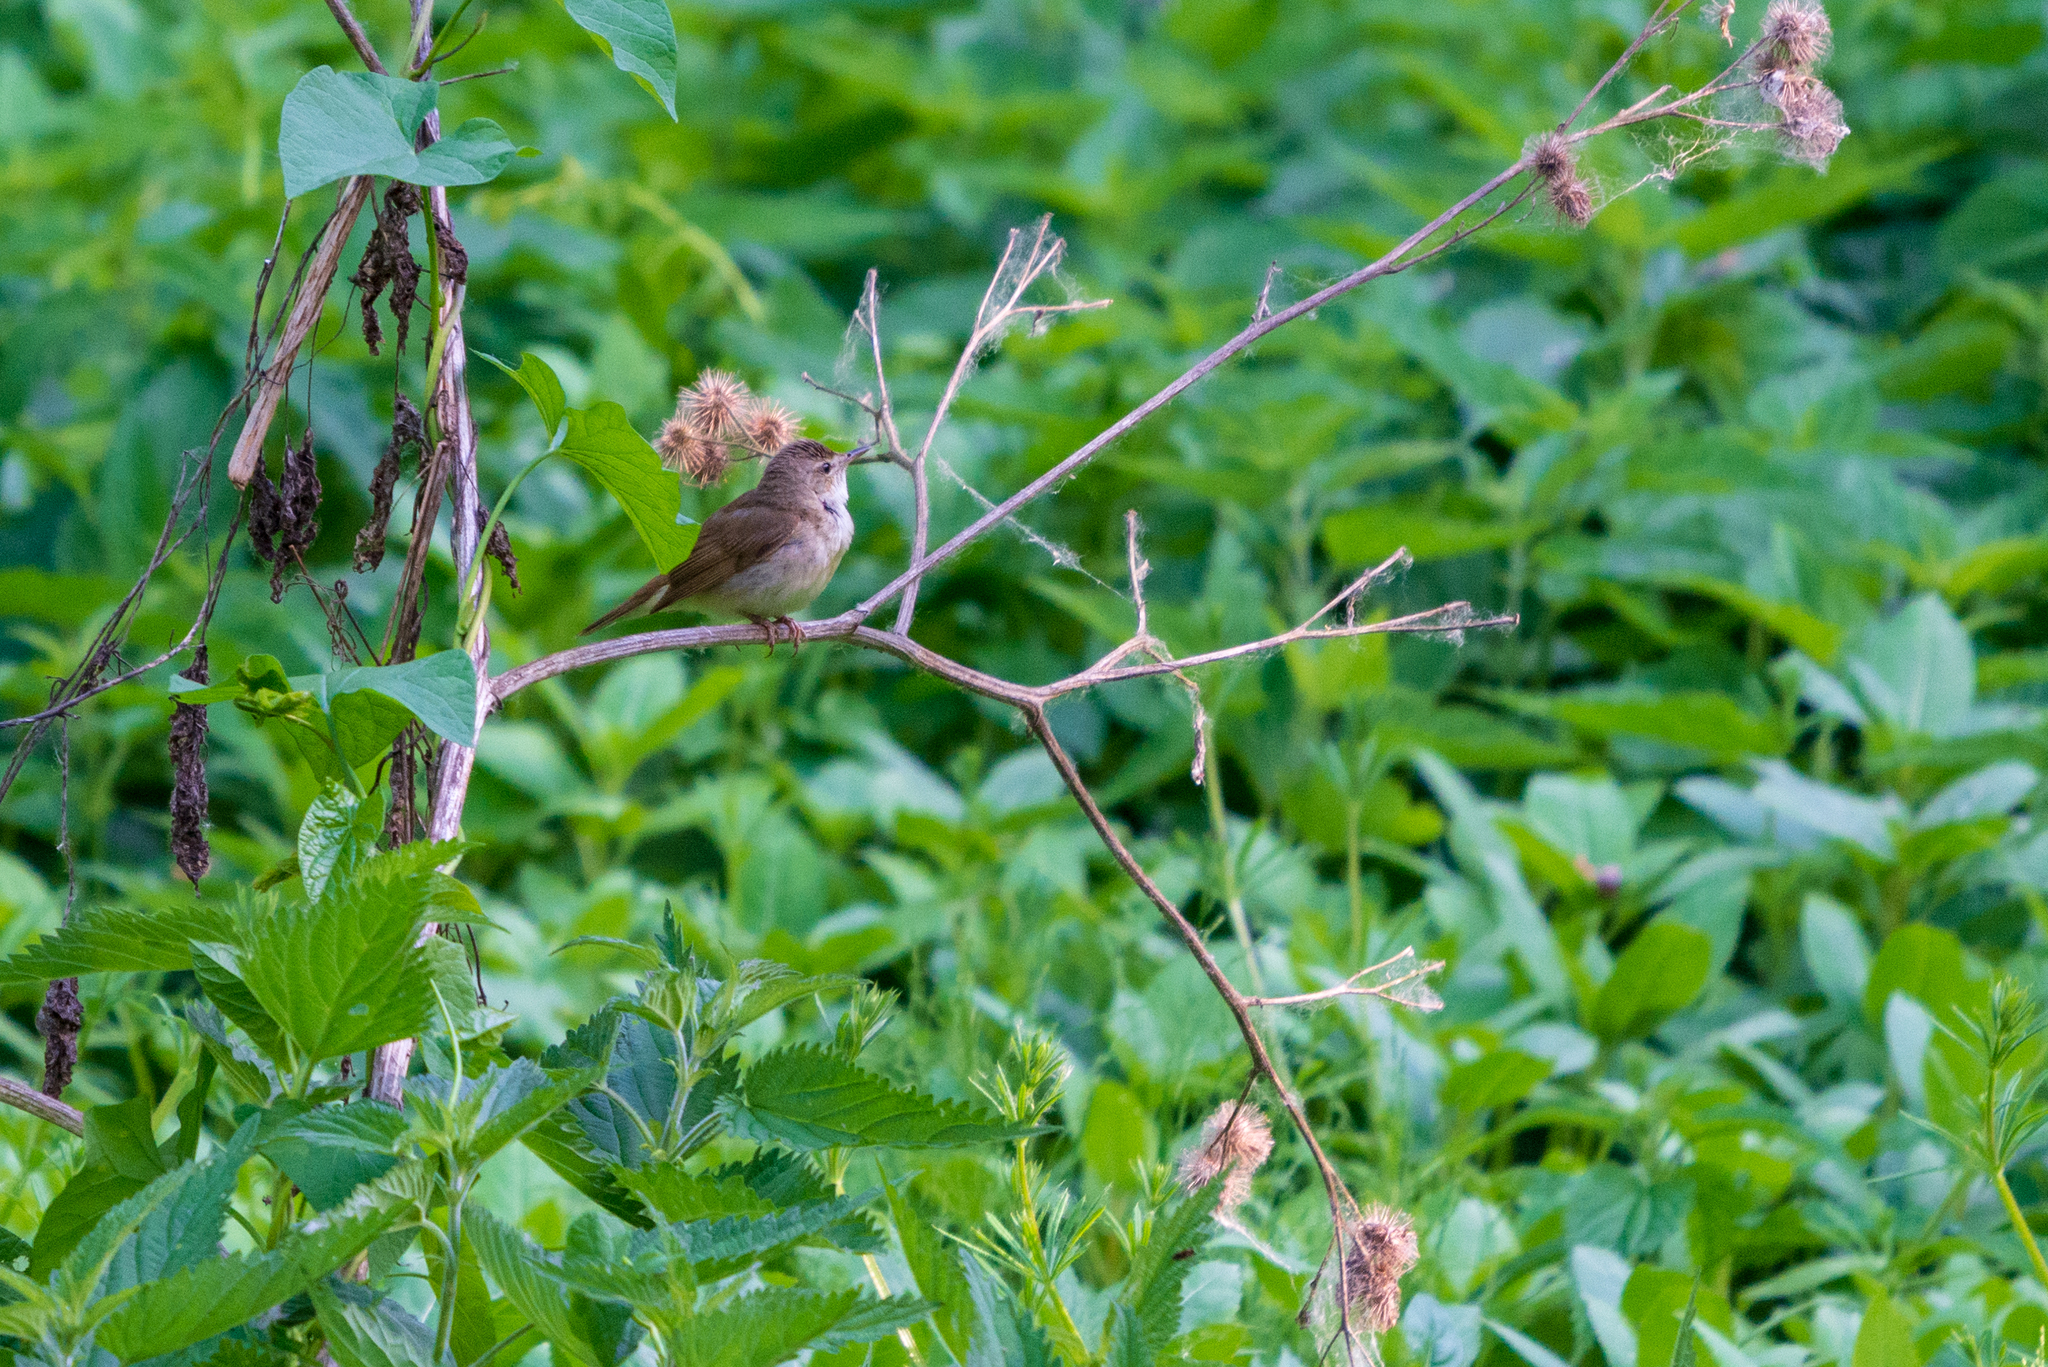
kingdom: Animalia
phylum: Chordata
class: Aves
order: Passeriformes
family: Acrocephalidae
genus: Acrocephalus
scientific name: Acrocephalus dumetorum
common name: Blyth's reed warbler
